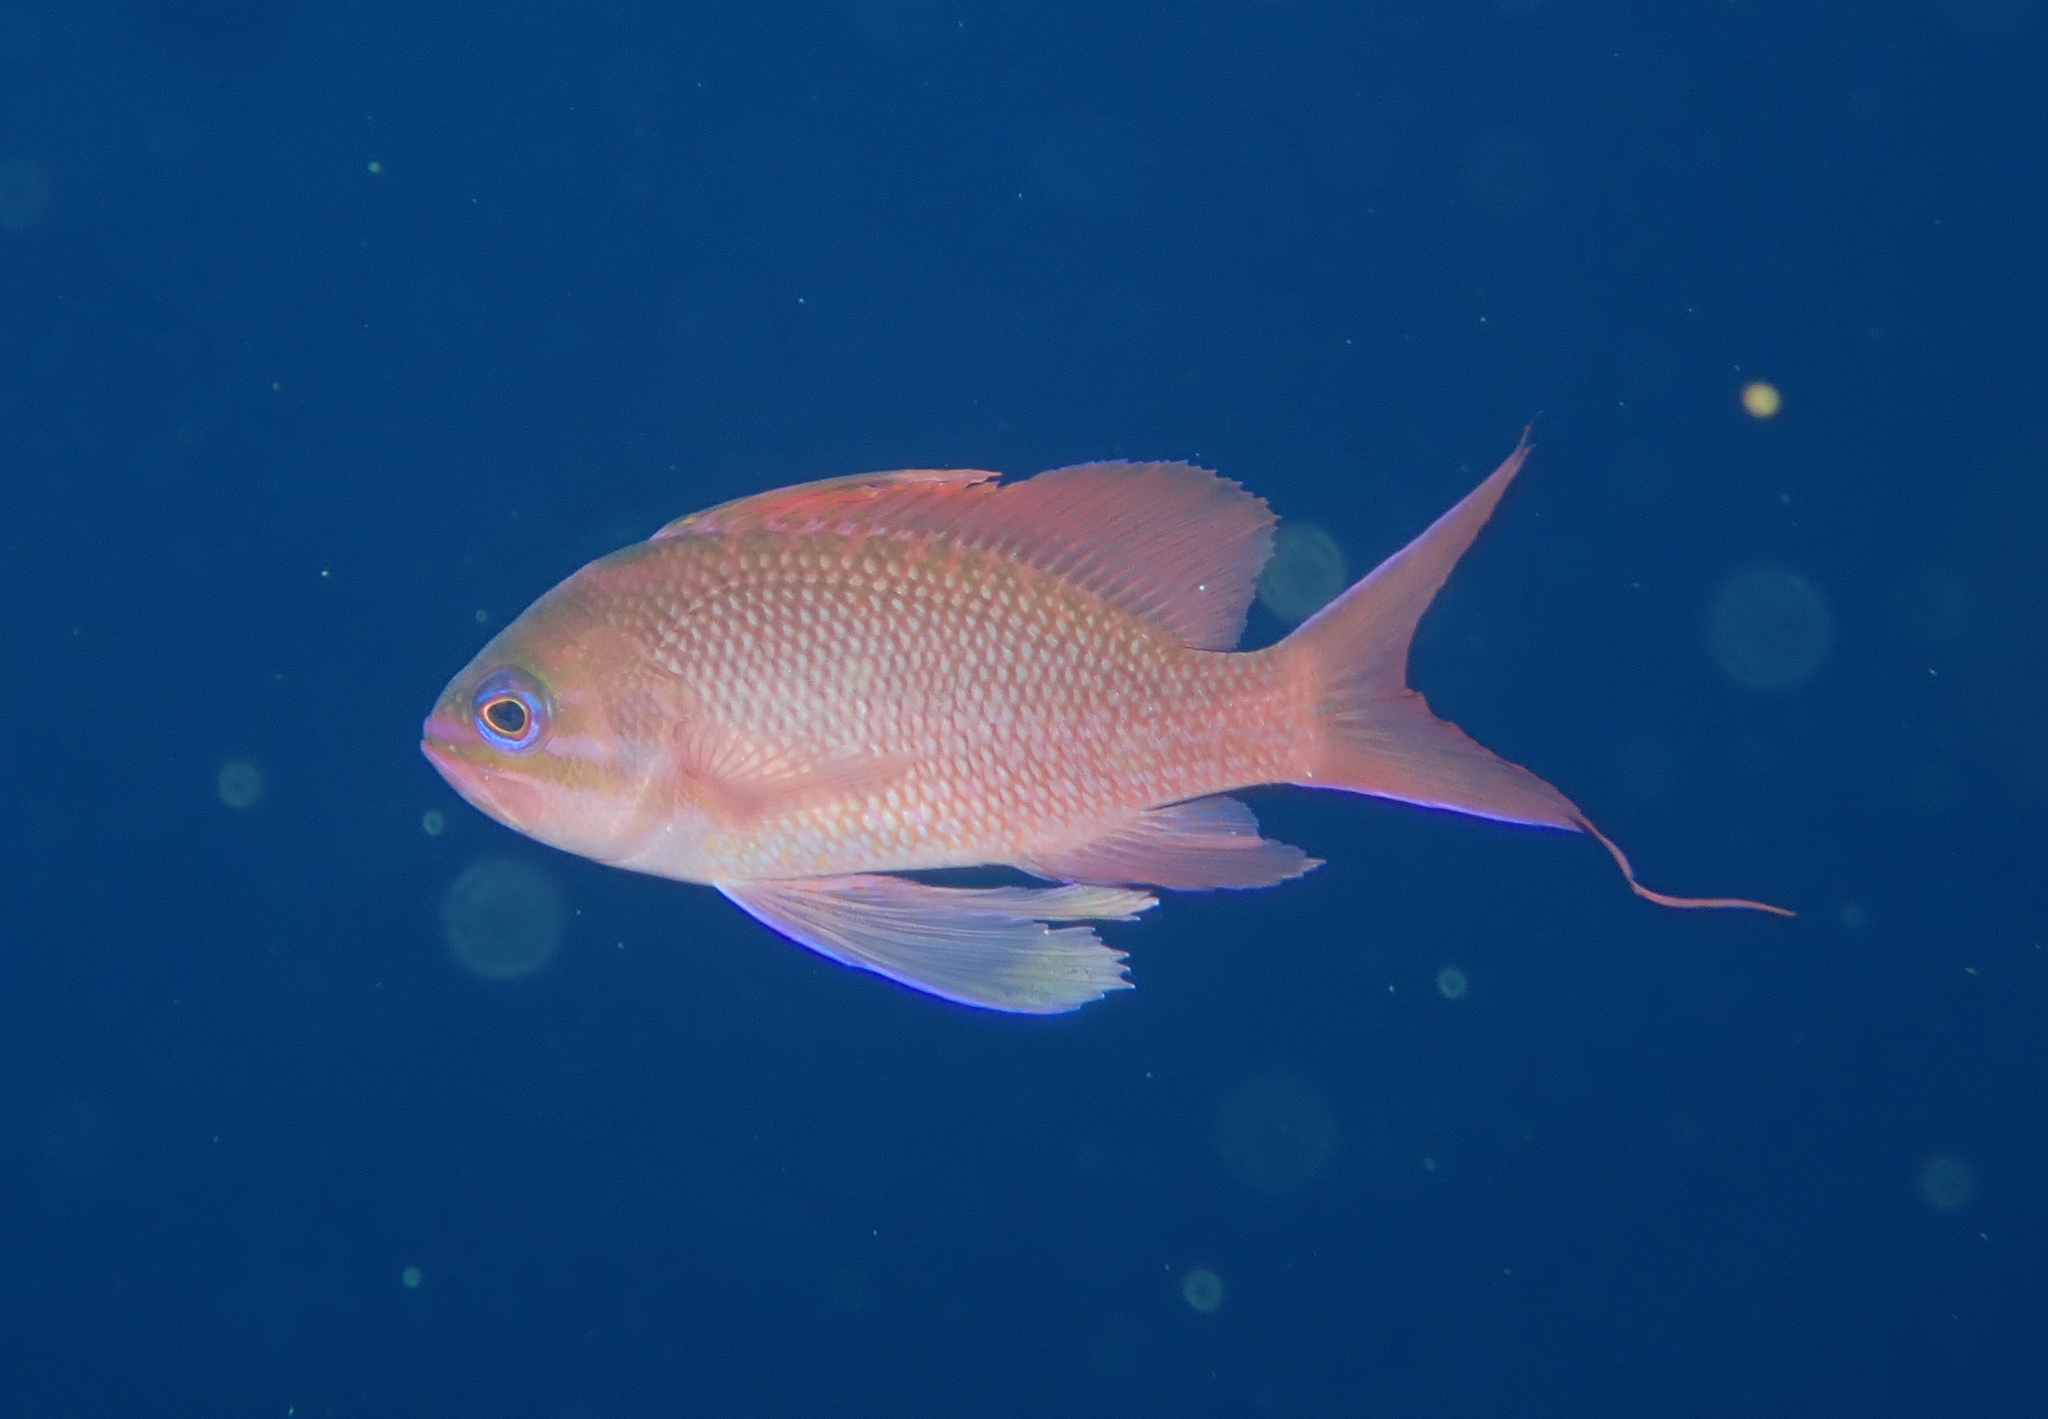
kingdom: Animalia
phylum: Chordata
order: Perciformes
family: Serranidae
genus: Anthias
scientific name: Anthias anthias
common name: Swallowtail seaperch
